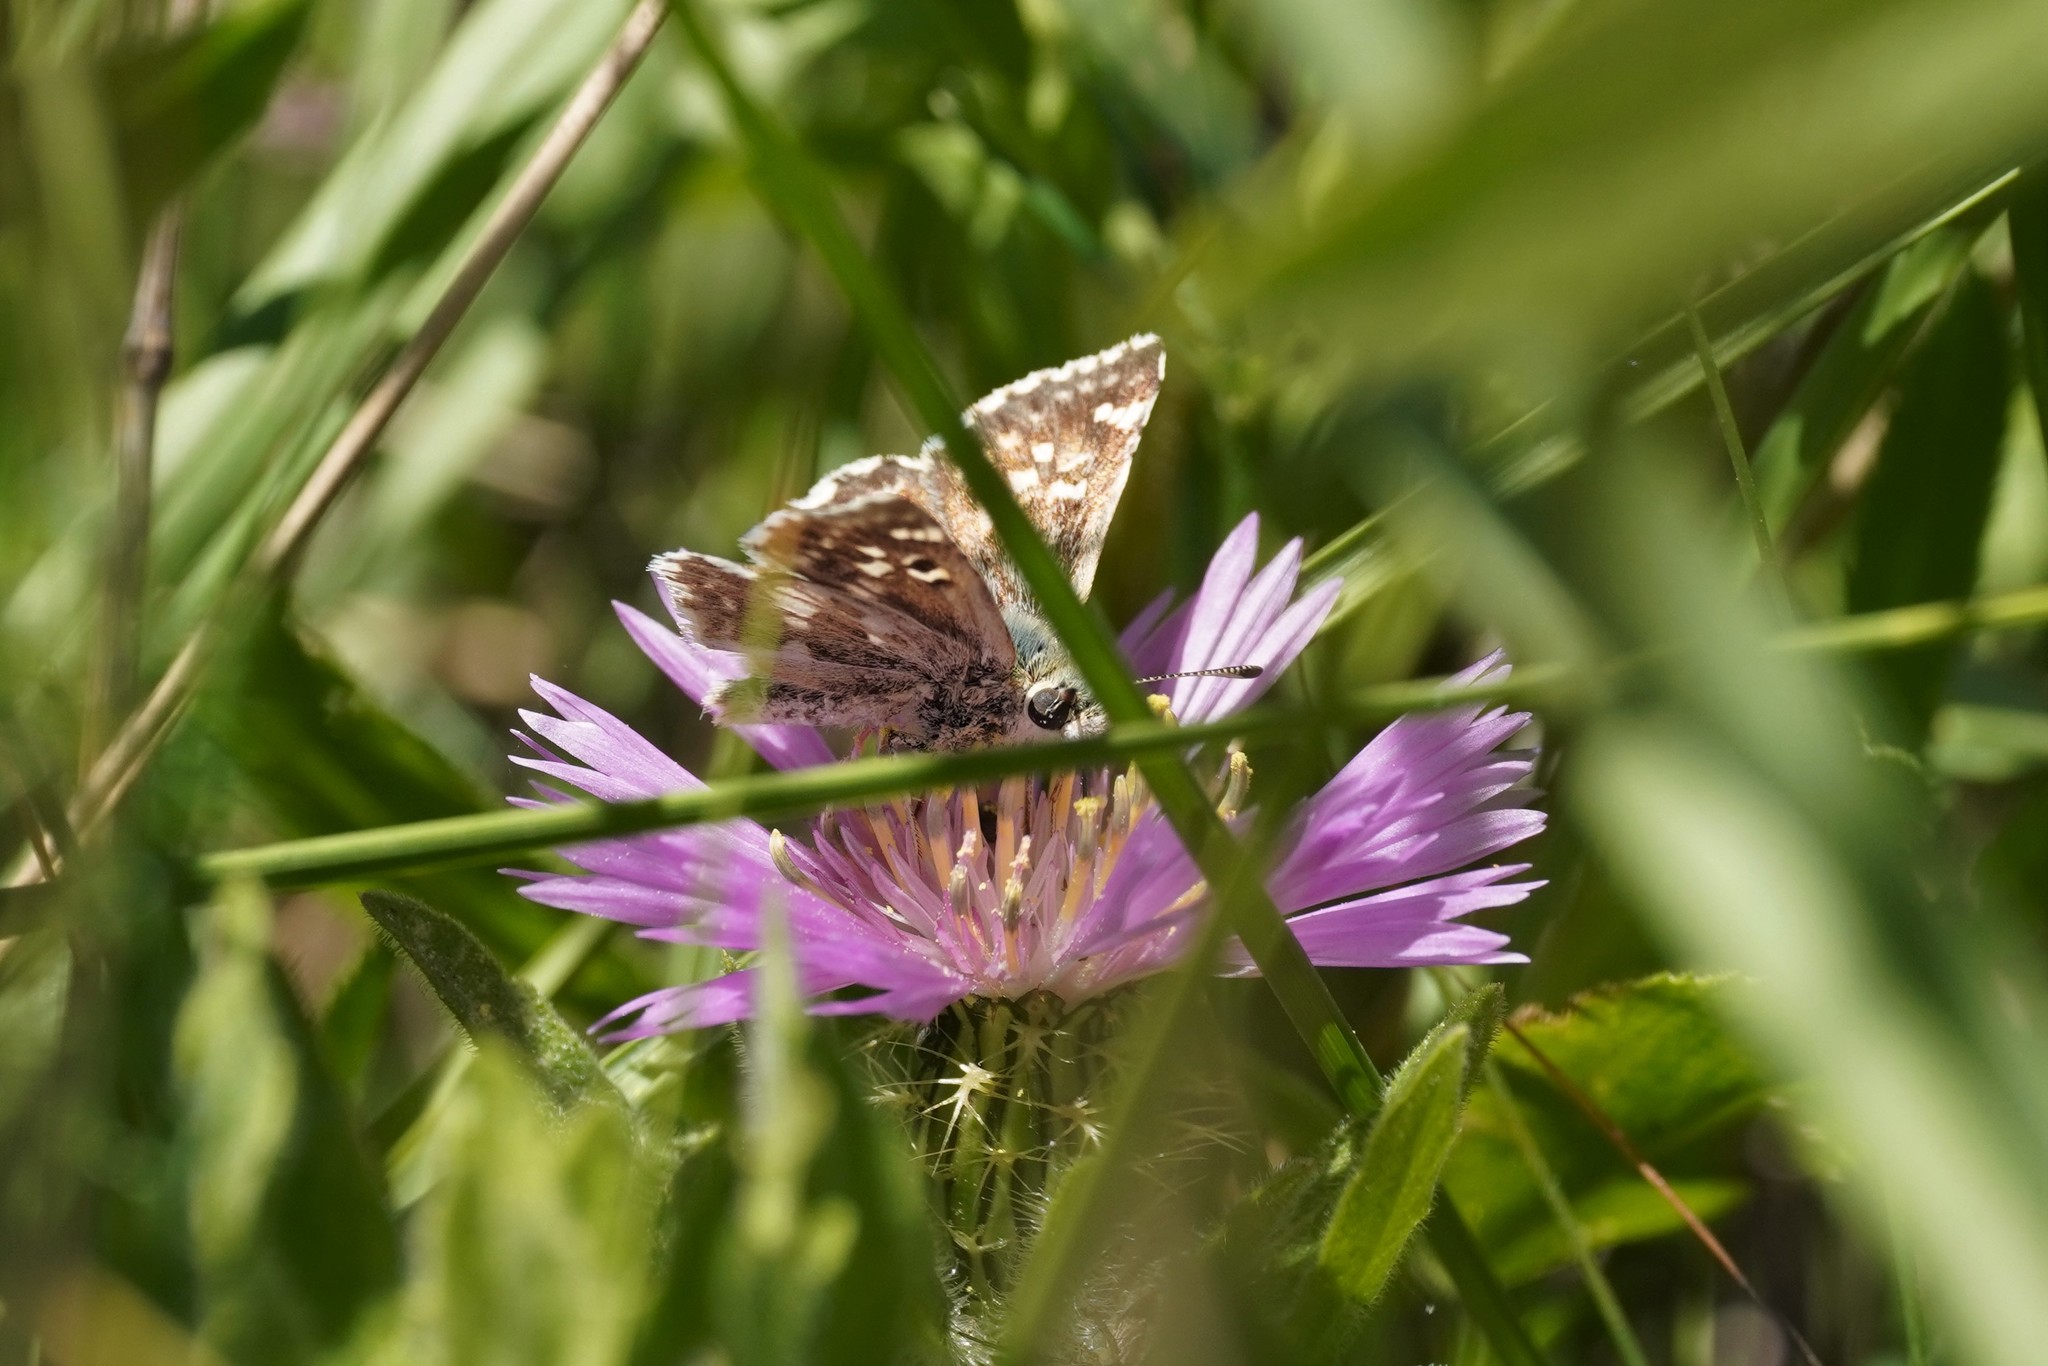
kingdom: Animalia
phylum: Arthropoda
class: Insecta
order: Lepidoptera
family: Hesperiidae
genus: Syrichtus
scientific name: Syrichtus Muschampia proto
